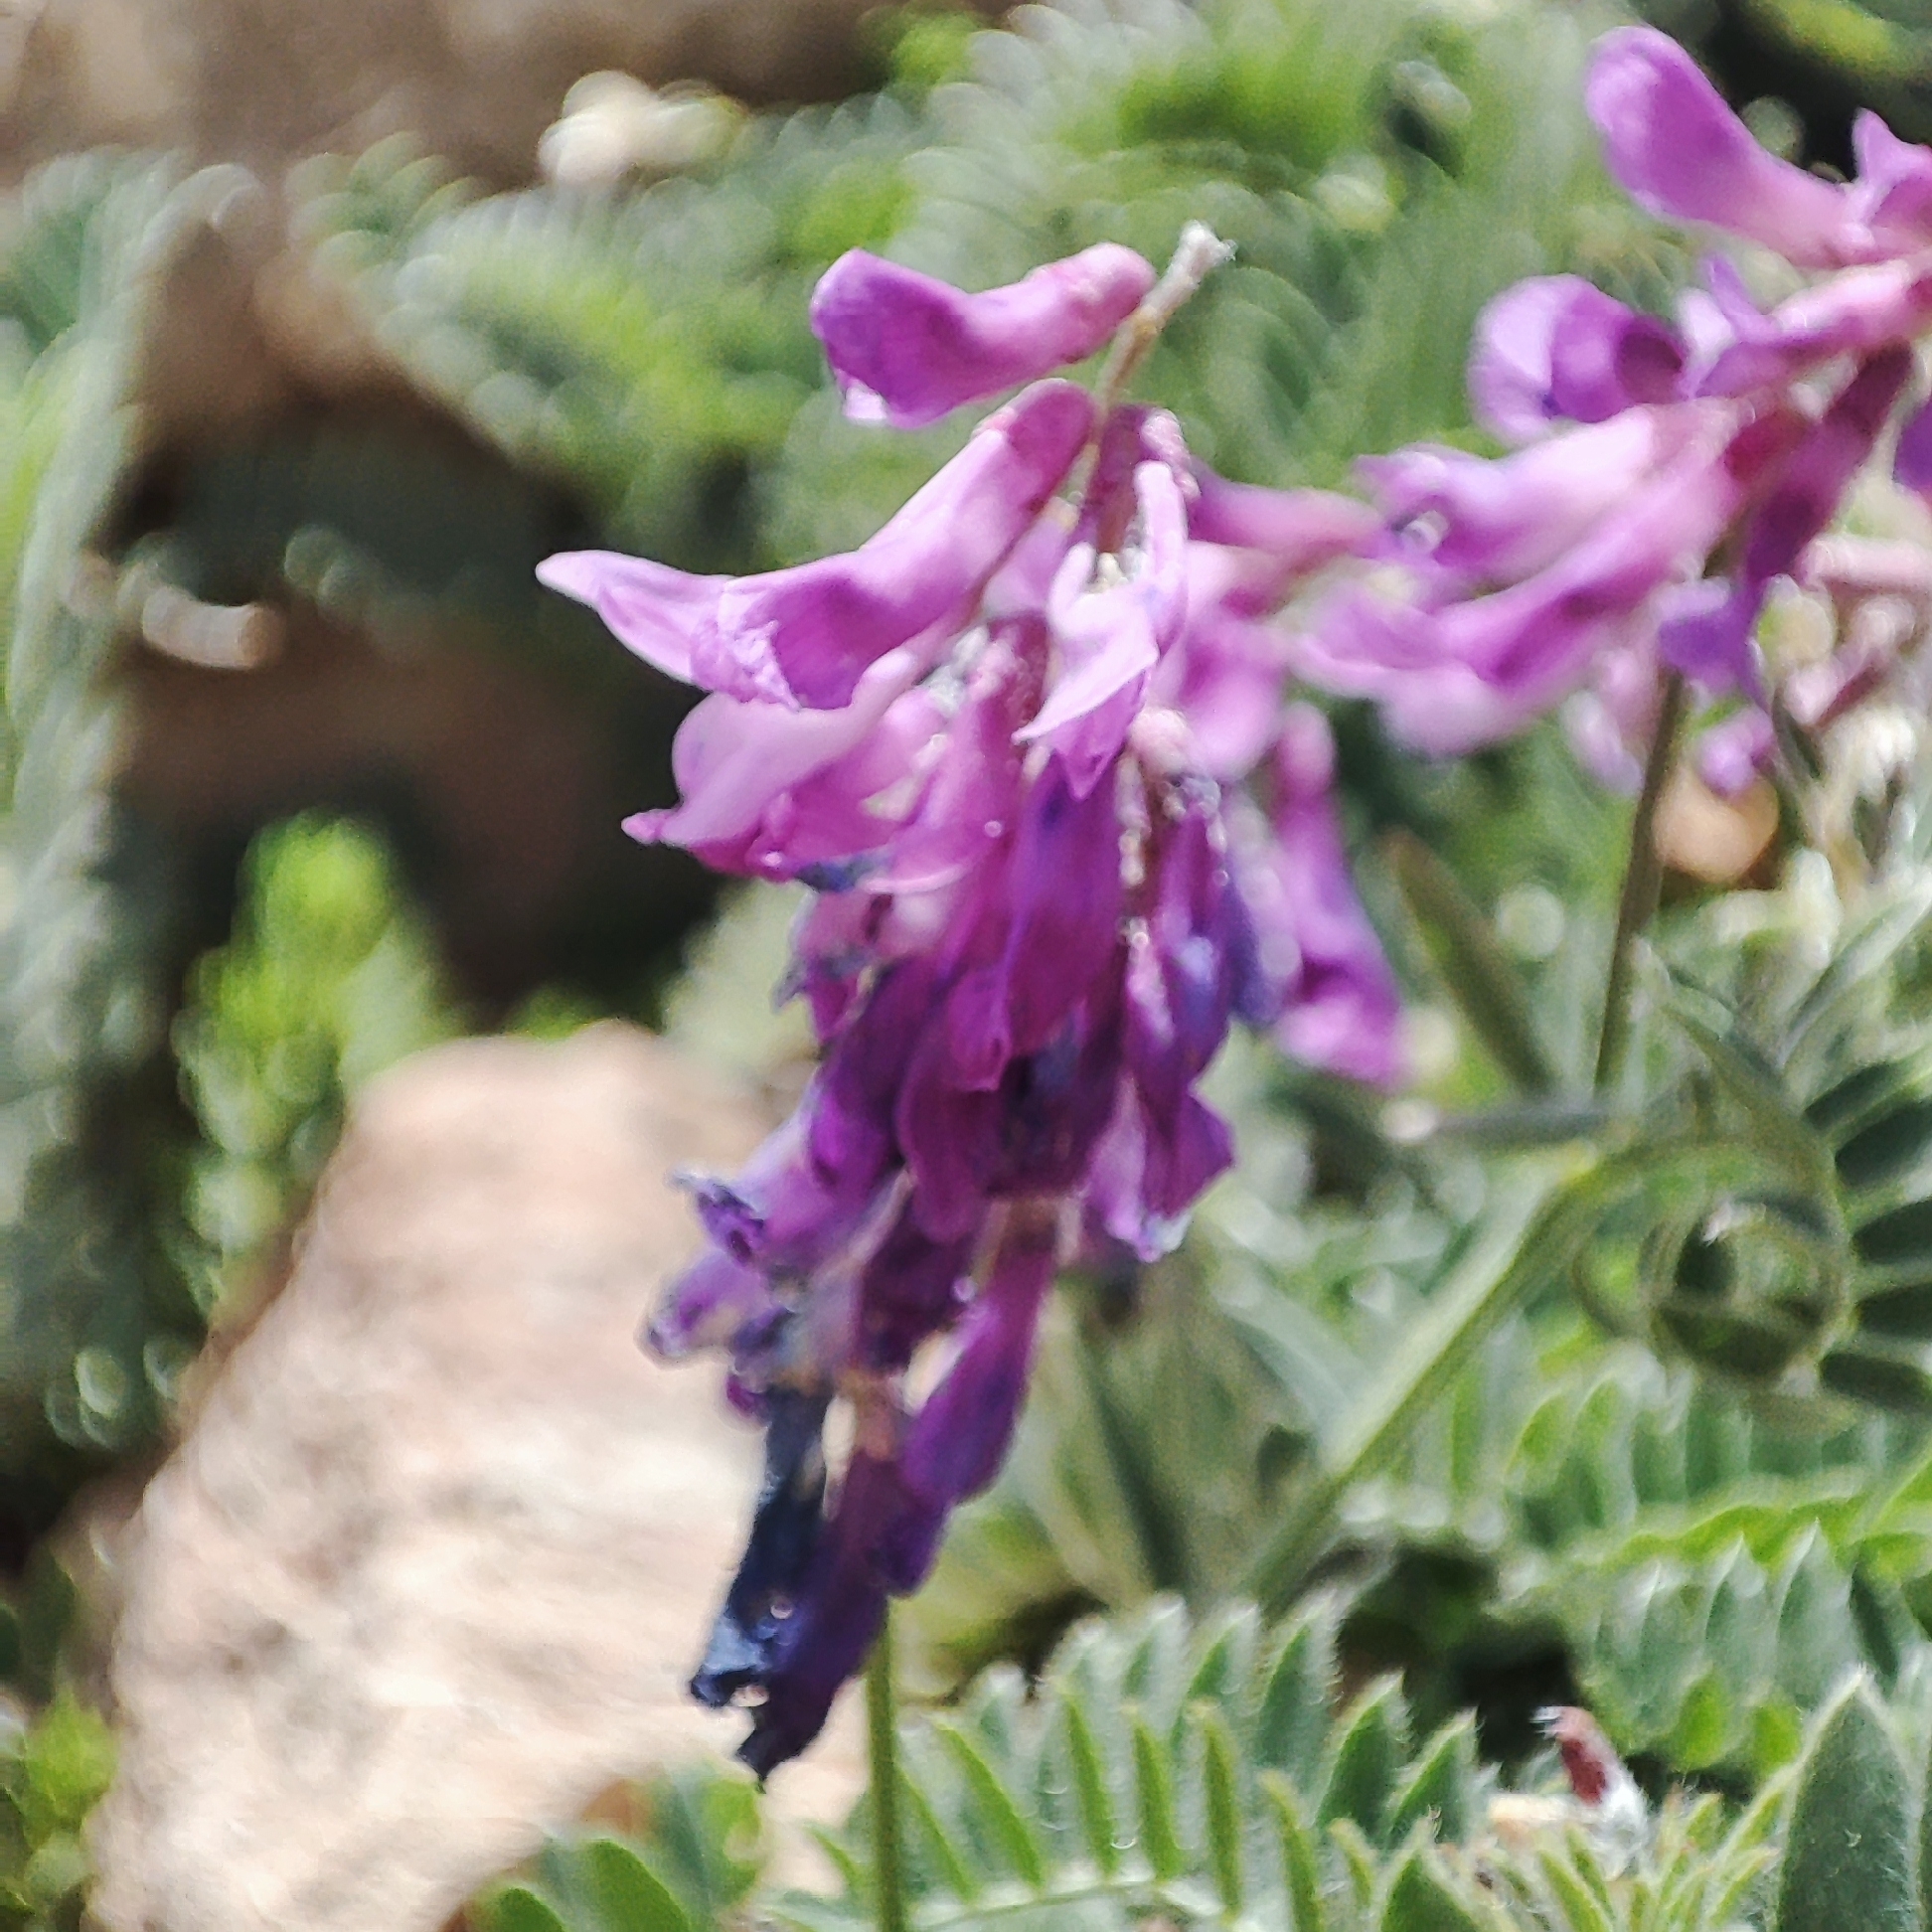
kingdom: Plantae
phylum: Tracheophyta
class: Magnoliopsida
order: Fabales
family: Fabaceae
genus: Vicia
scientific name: Vicia tenuifolia
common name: Fine-leaved vetch
